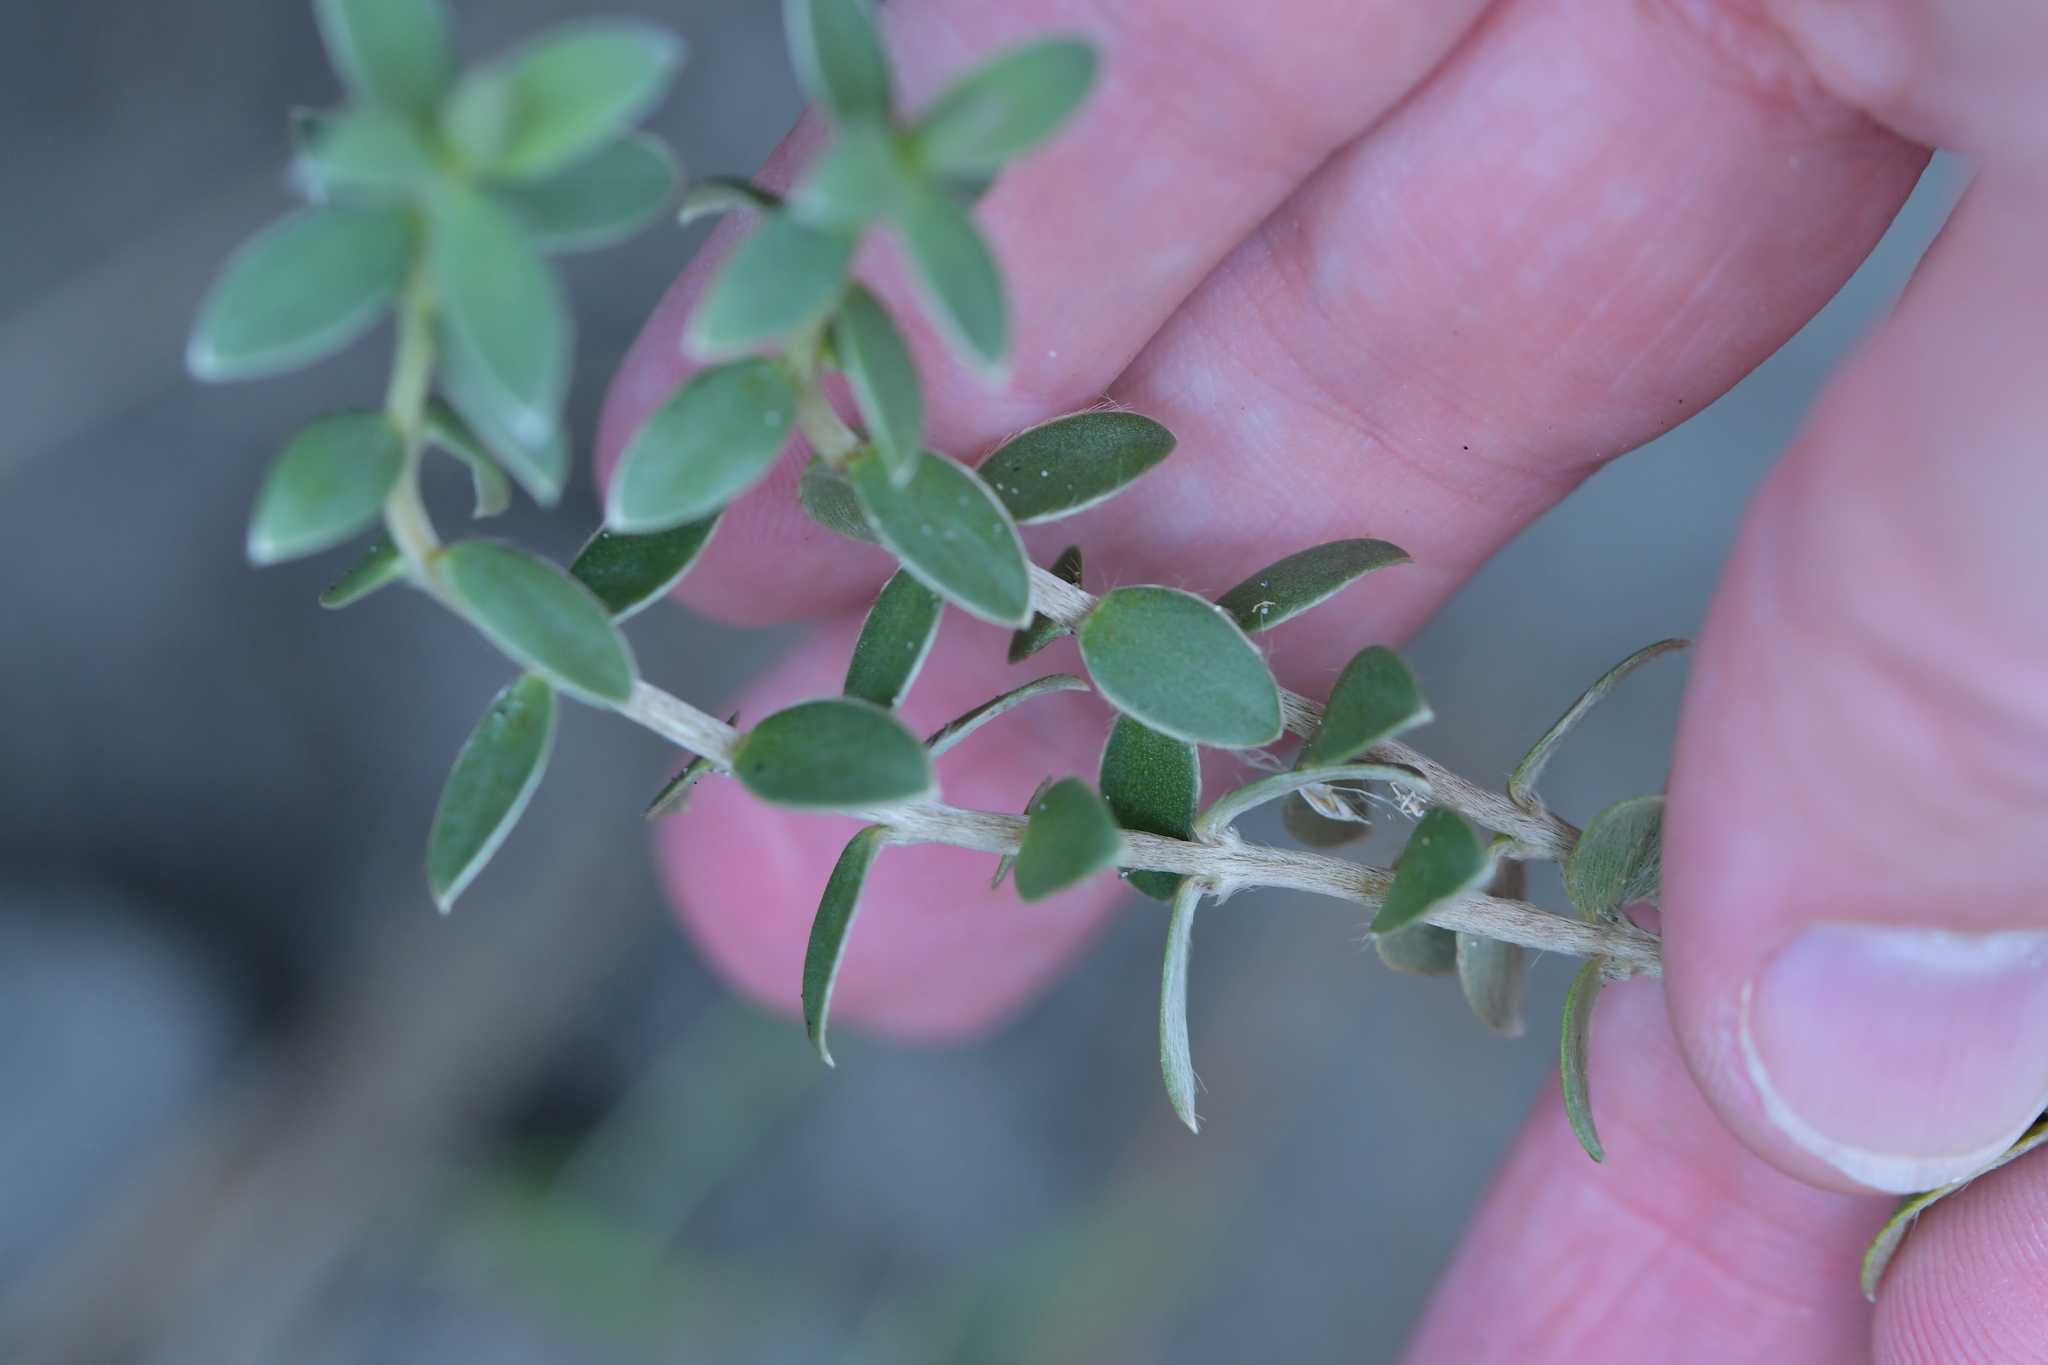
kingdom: Plantae
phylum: Tracheophyta
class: Magnoliopsida
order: Malvales
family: Thymelaeaceae
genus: Pimelea
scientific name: Pimelea villosa
